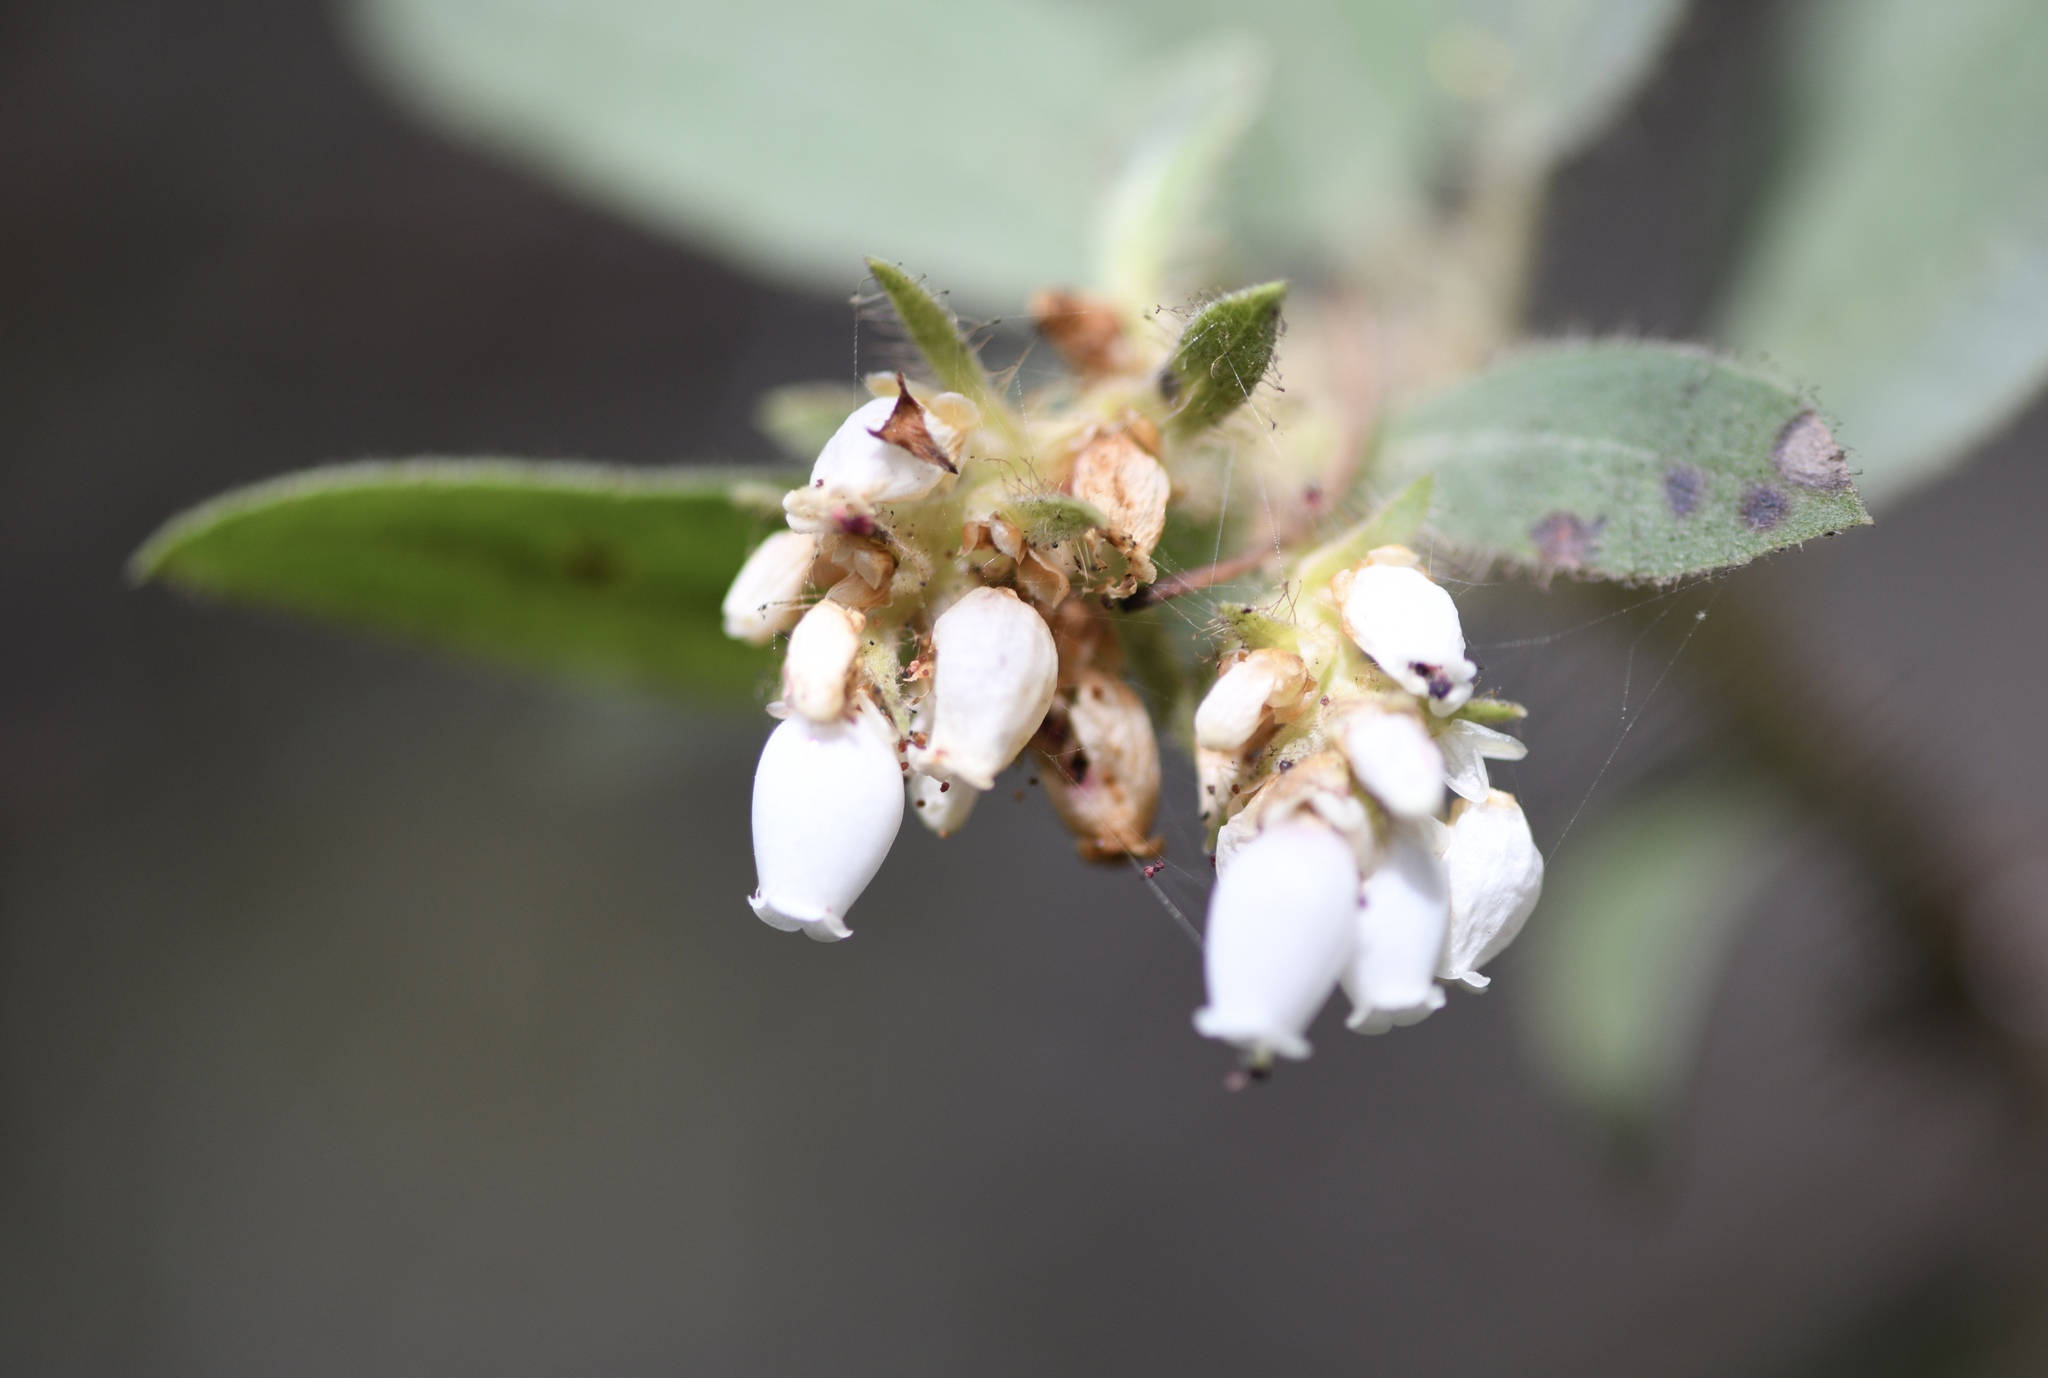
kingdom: Plantae
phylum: Tracheophyta
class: Magnoliopsida
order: Ericales
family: Ericaceae
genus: Arctostaphylos
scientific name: Arctostaphylos columbiana
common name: Bristly bearberry
